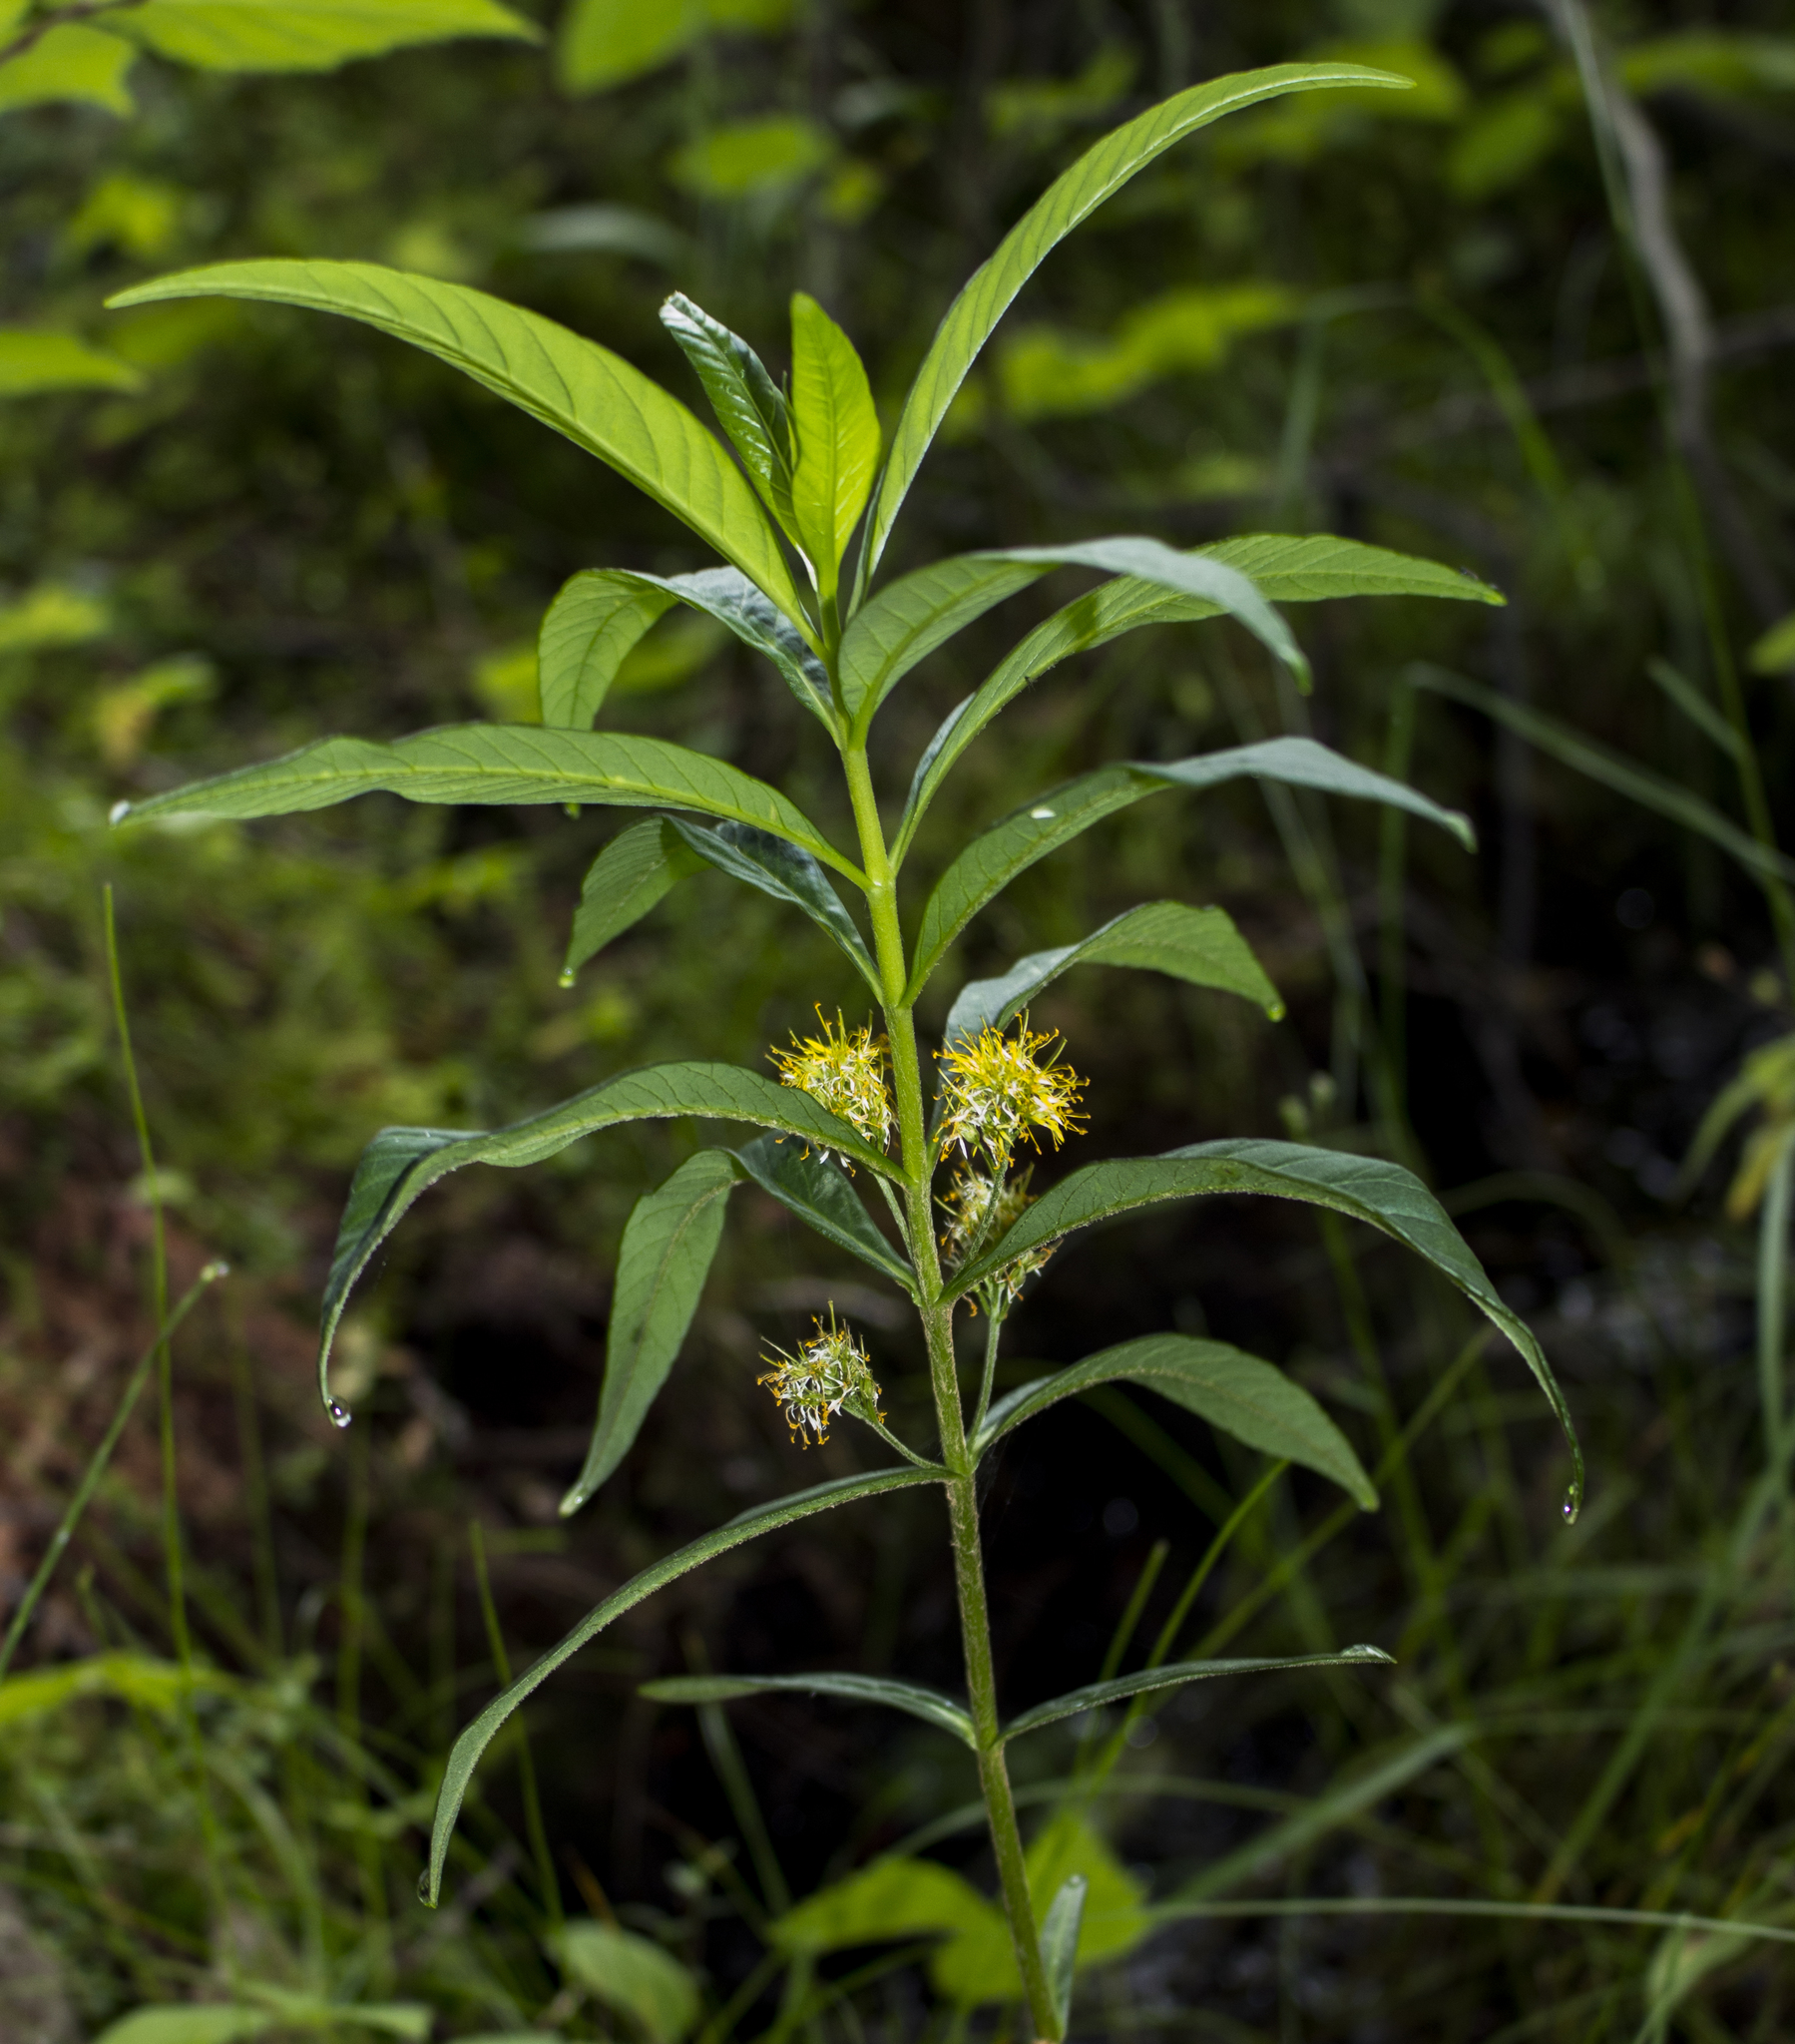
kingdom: Plantae
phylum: Tracheophyta
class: Magnoliopsida
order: Ericales
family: Primulaceae
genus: Lysimachia
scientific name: Lysimachia thyrsiflora
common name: Tufted loosestrife
